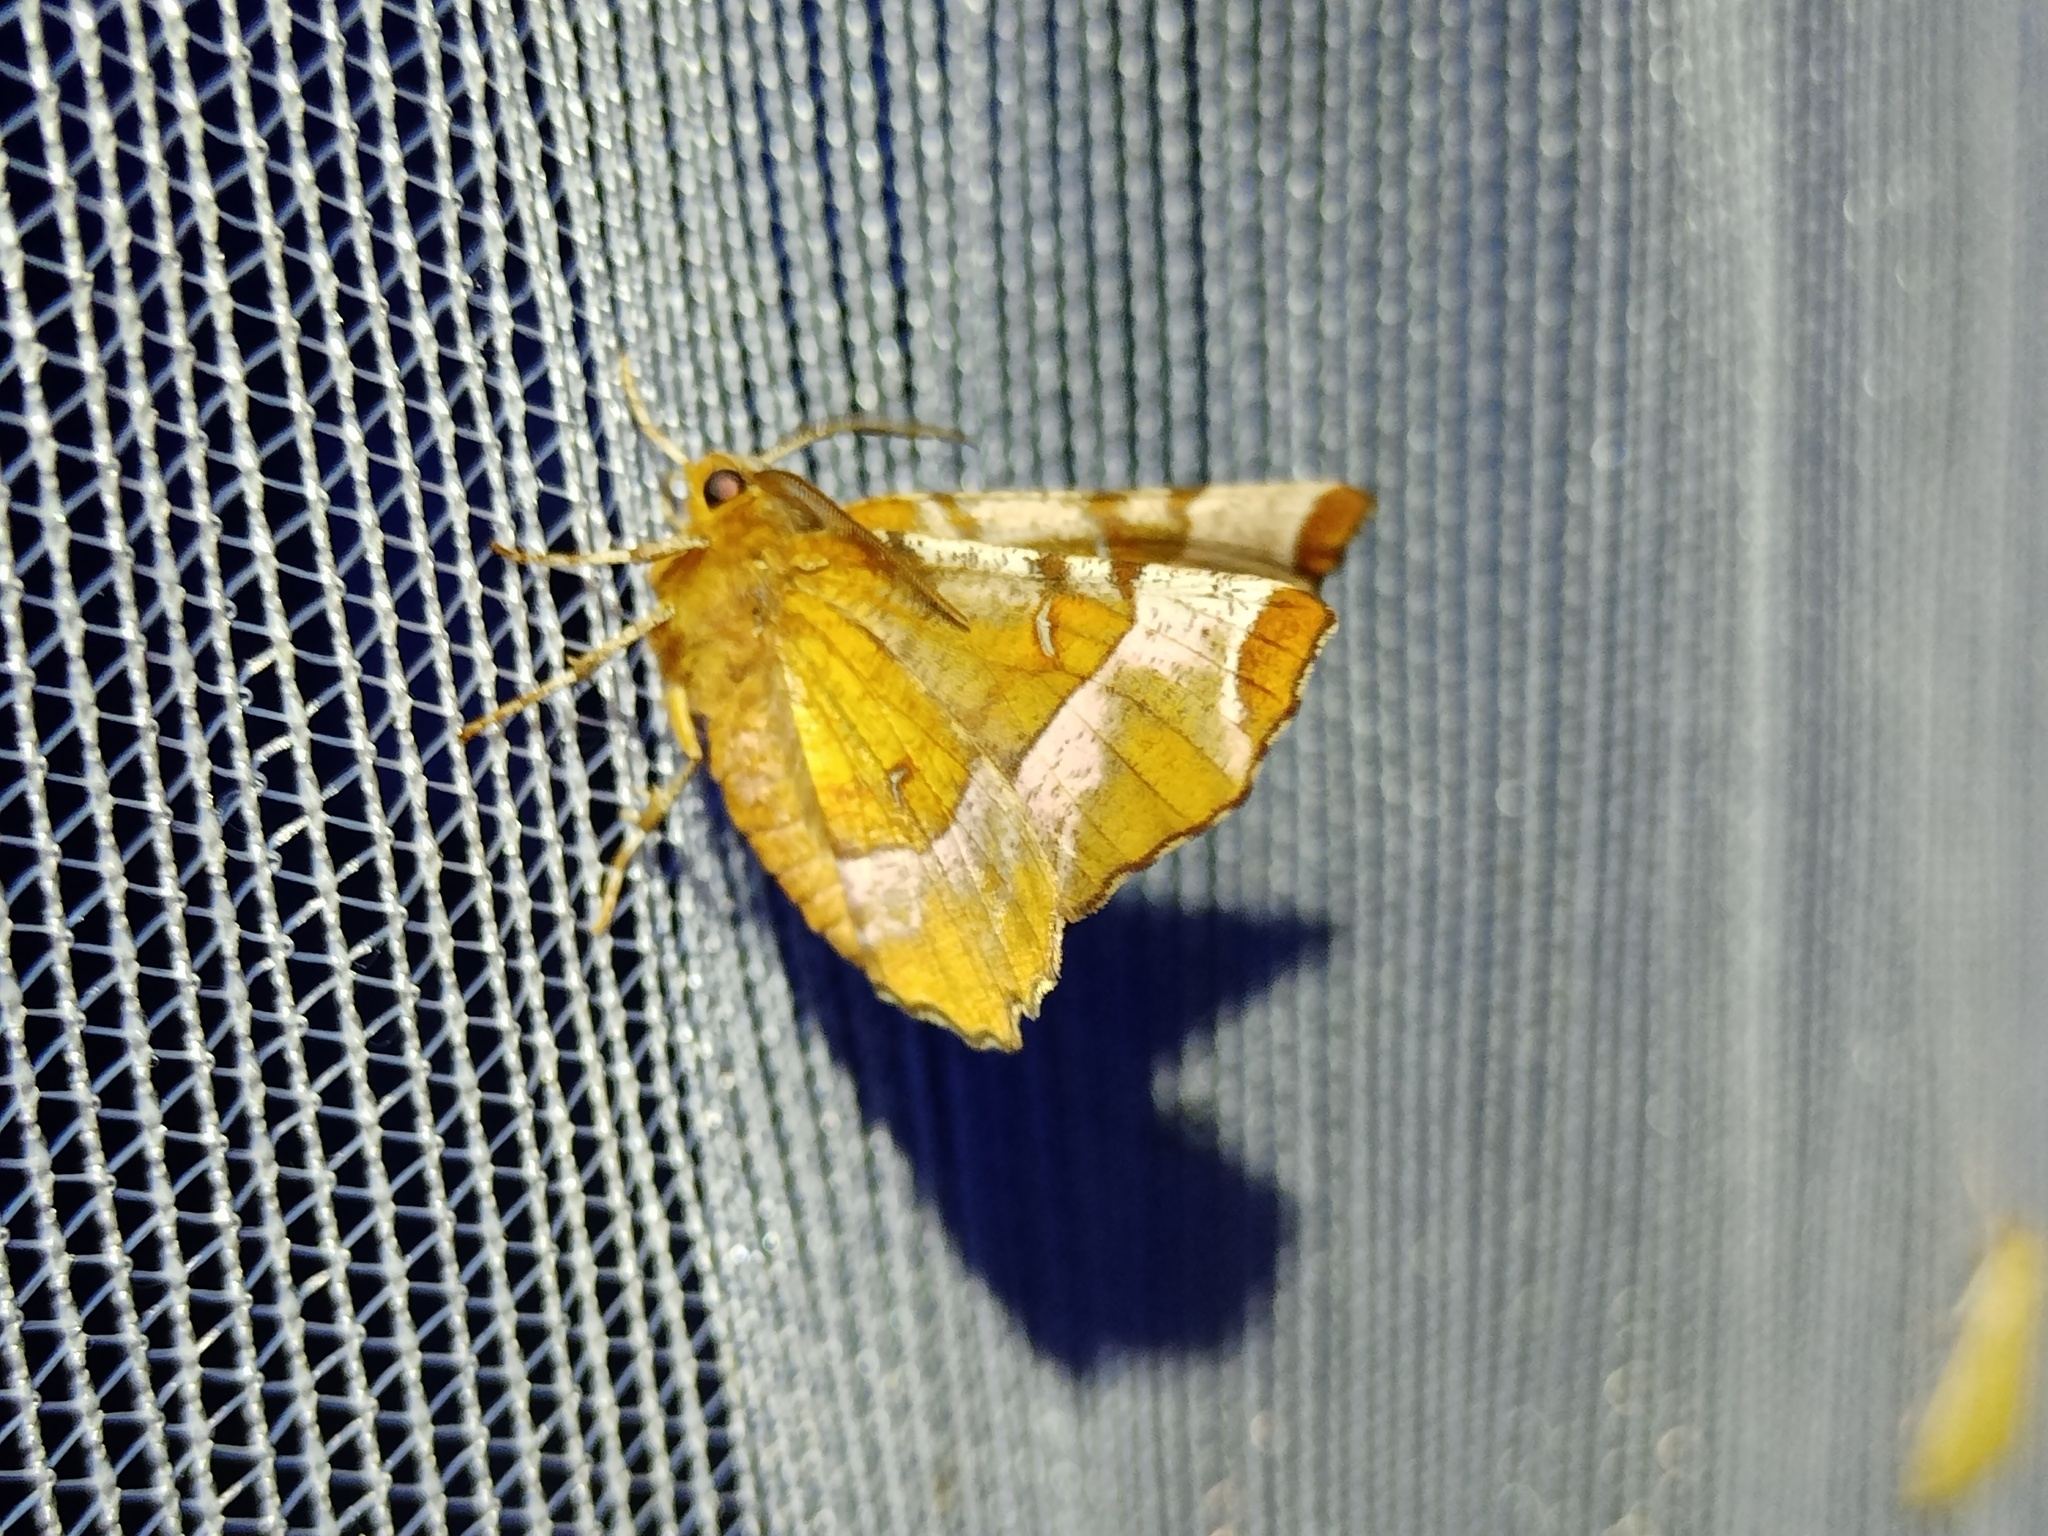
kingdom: Animalia
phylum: Arthropoda
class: Insecta
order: Lepidoptera
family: Geometridae
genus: Selenia
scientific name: Selenia tetralunaria
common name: Purple thorn
